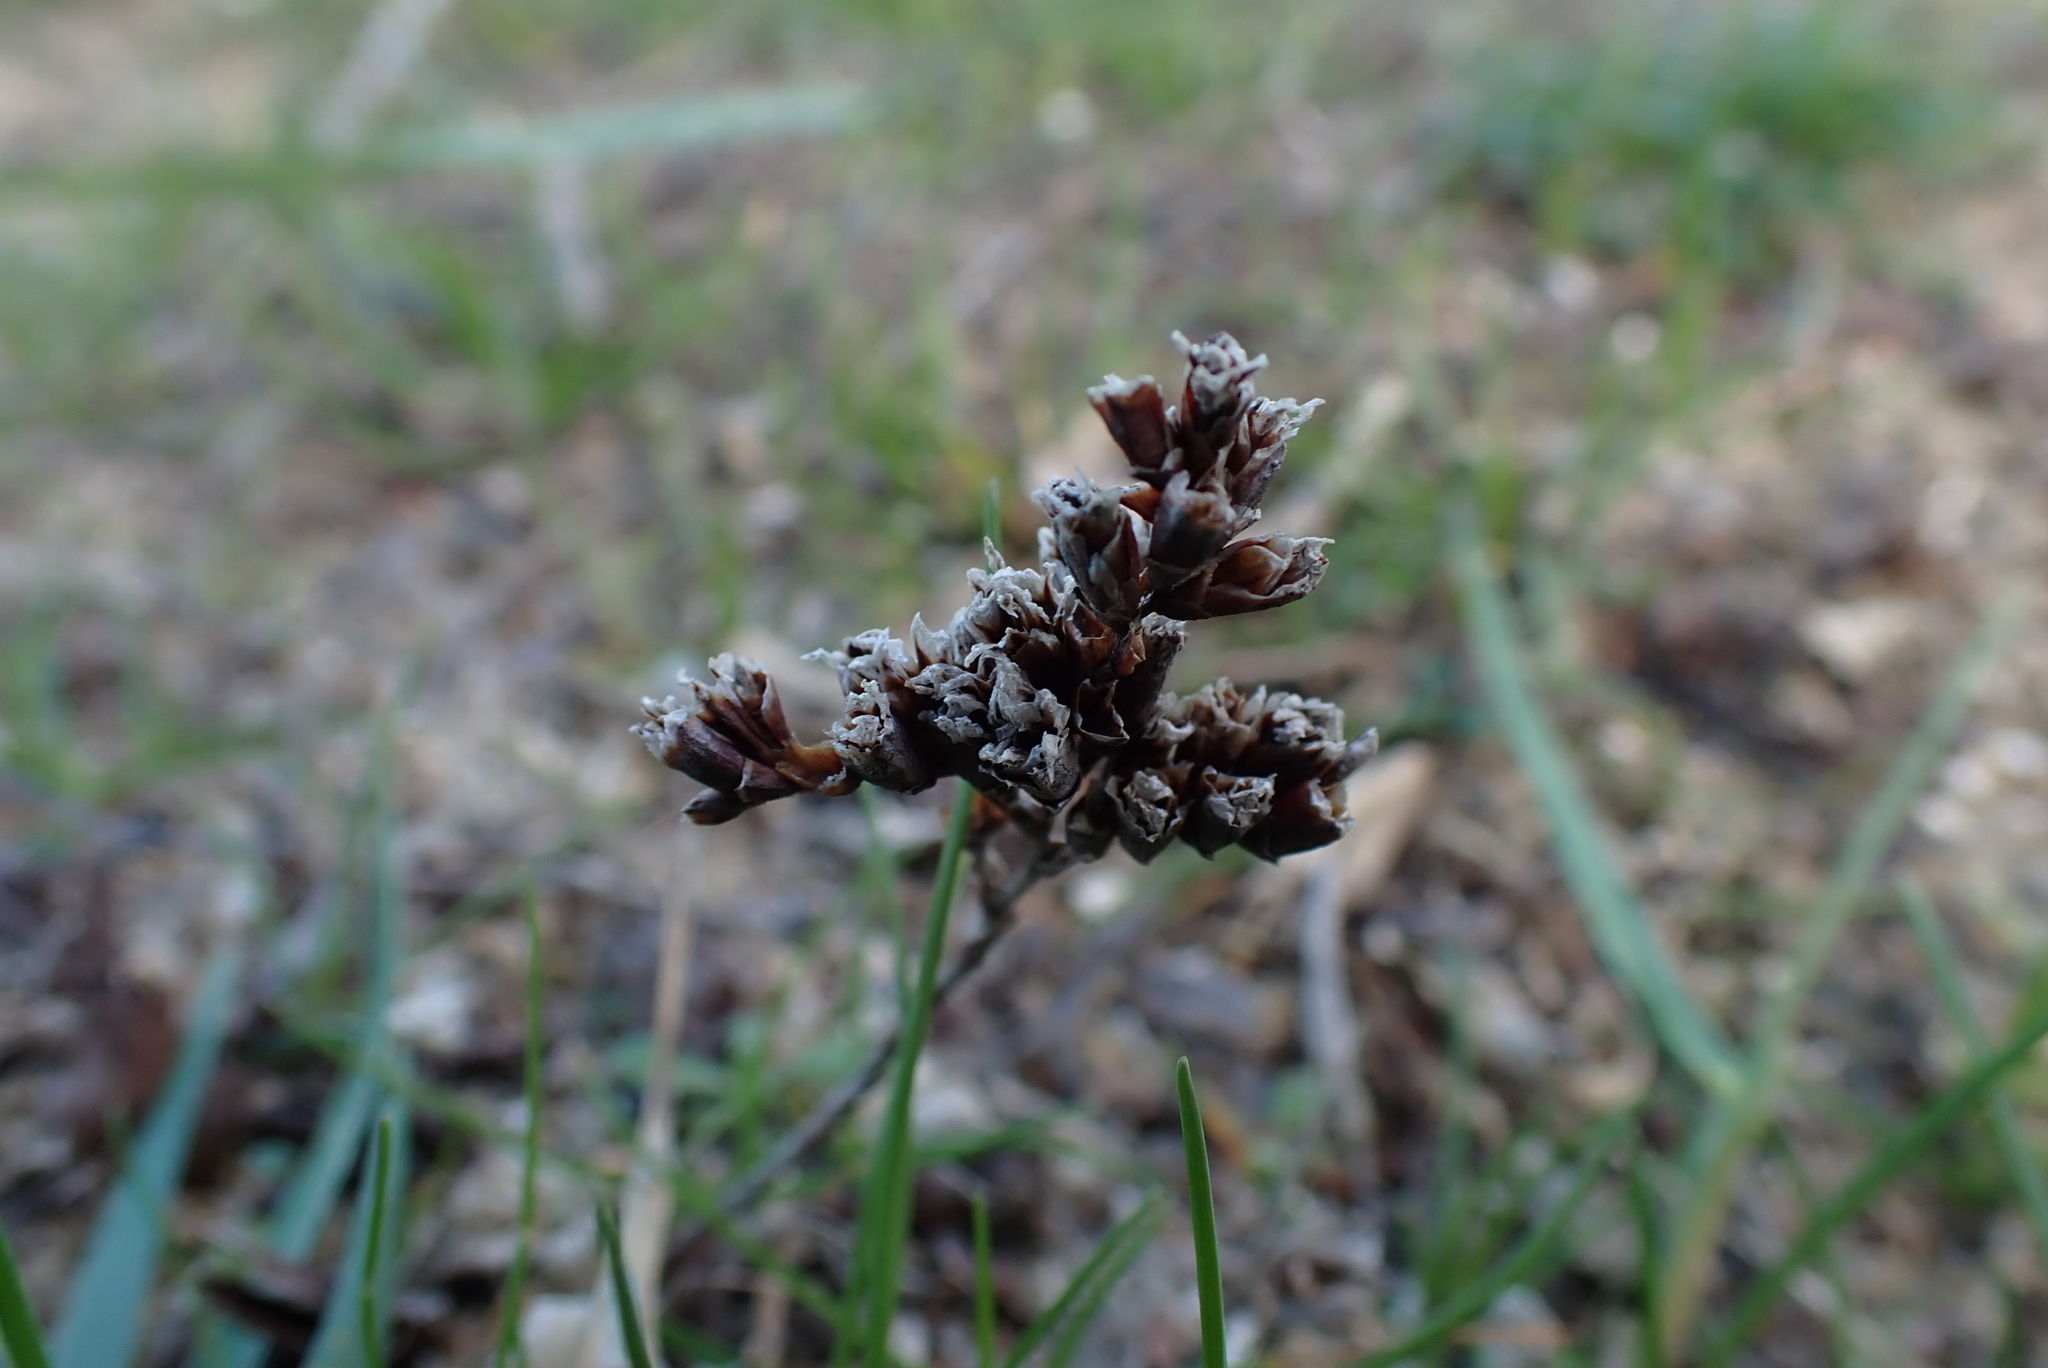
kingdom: Plantae
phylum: Tracheophyta
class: Magnoliopsida
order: Caryophyllales
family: Plumbaginaceae
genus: Limonium
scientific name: Limonium binervosum
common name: Rock sea-lavender
